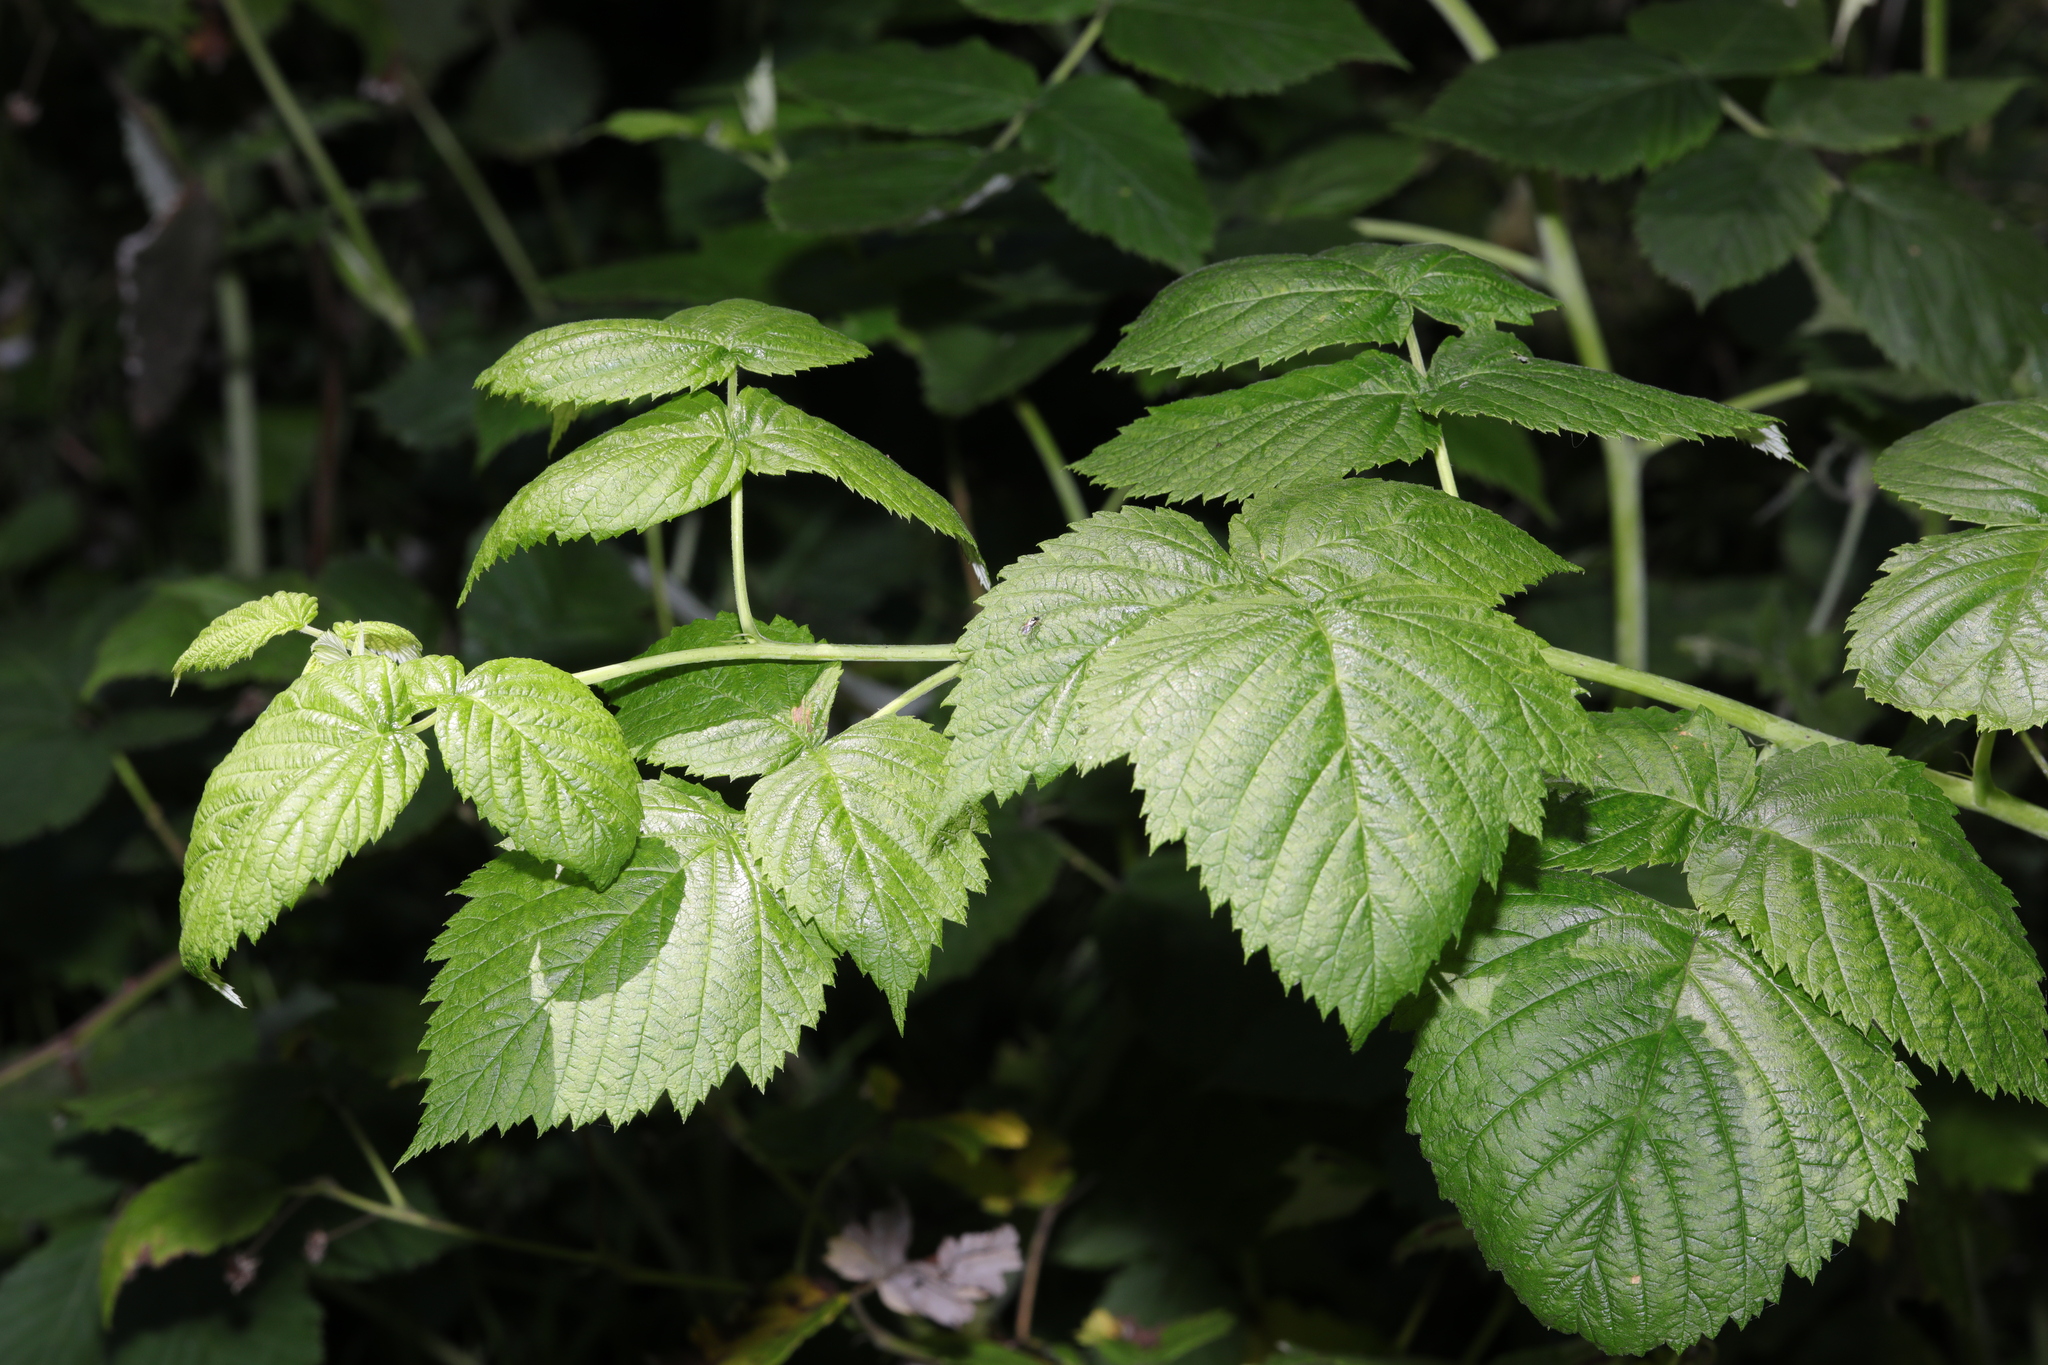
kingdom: Plantae
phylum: Tracheophyta
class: Magnoliopsida
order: Rosales
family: Rosaceae
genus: Rubus
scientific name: Rubus idaeus
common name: Raspberry
